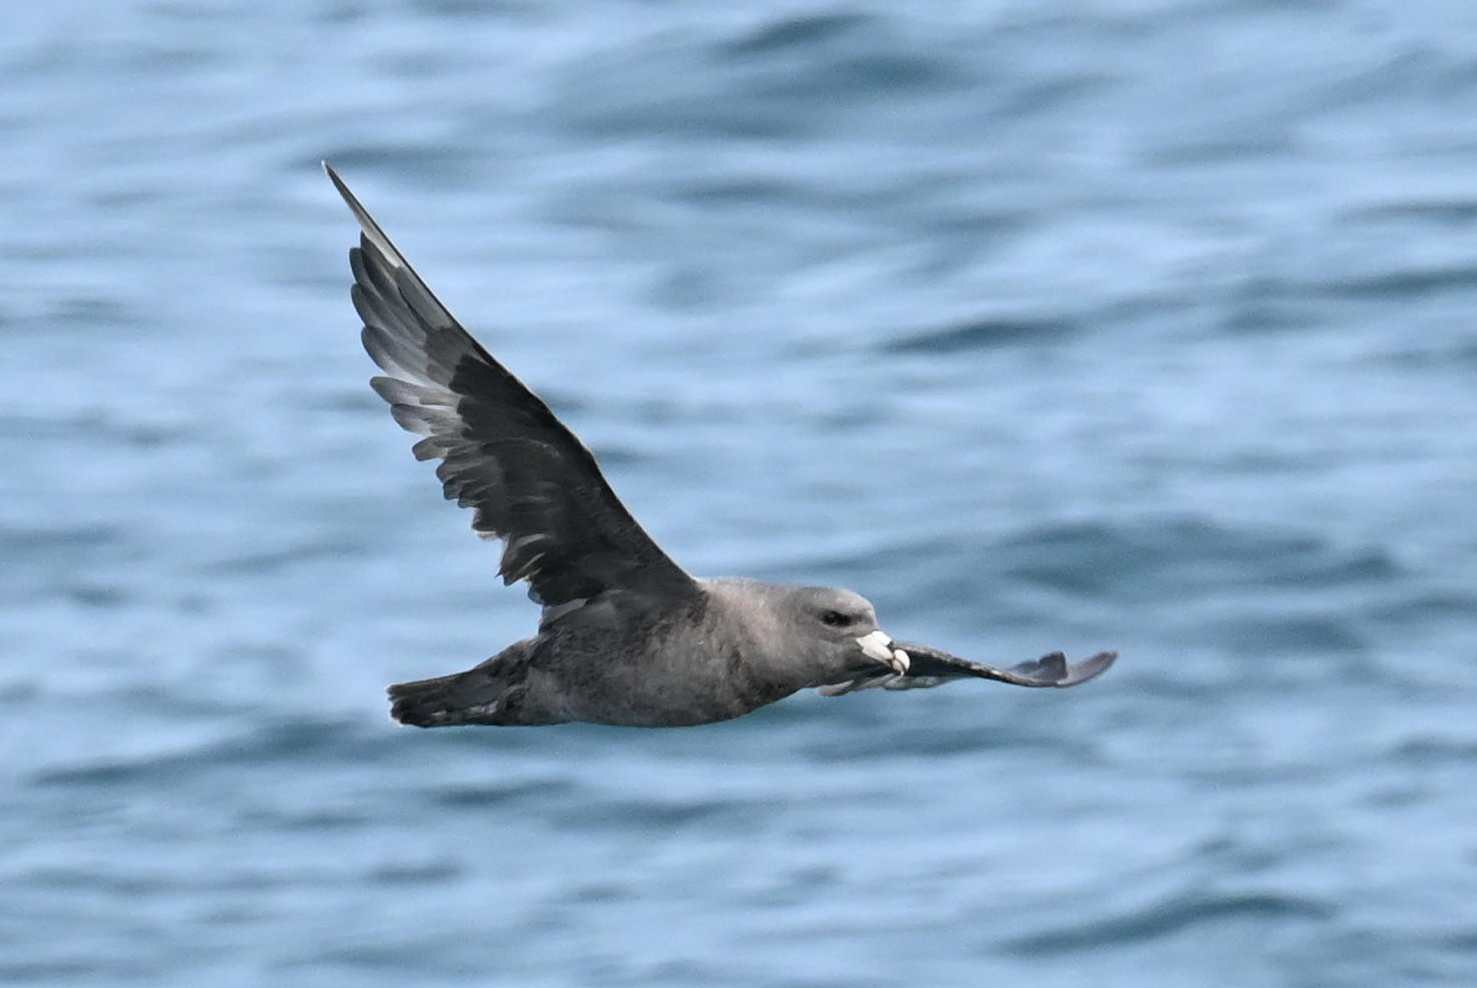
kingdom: Animalia
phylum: Chordata
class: Aves
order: Procellariiformes
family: Procellariidae
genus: Fulmarus
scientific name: Fulmarus glacialis
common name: Northern fulmar
